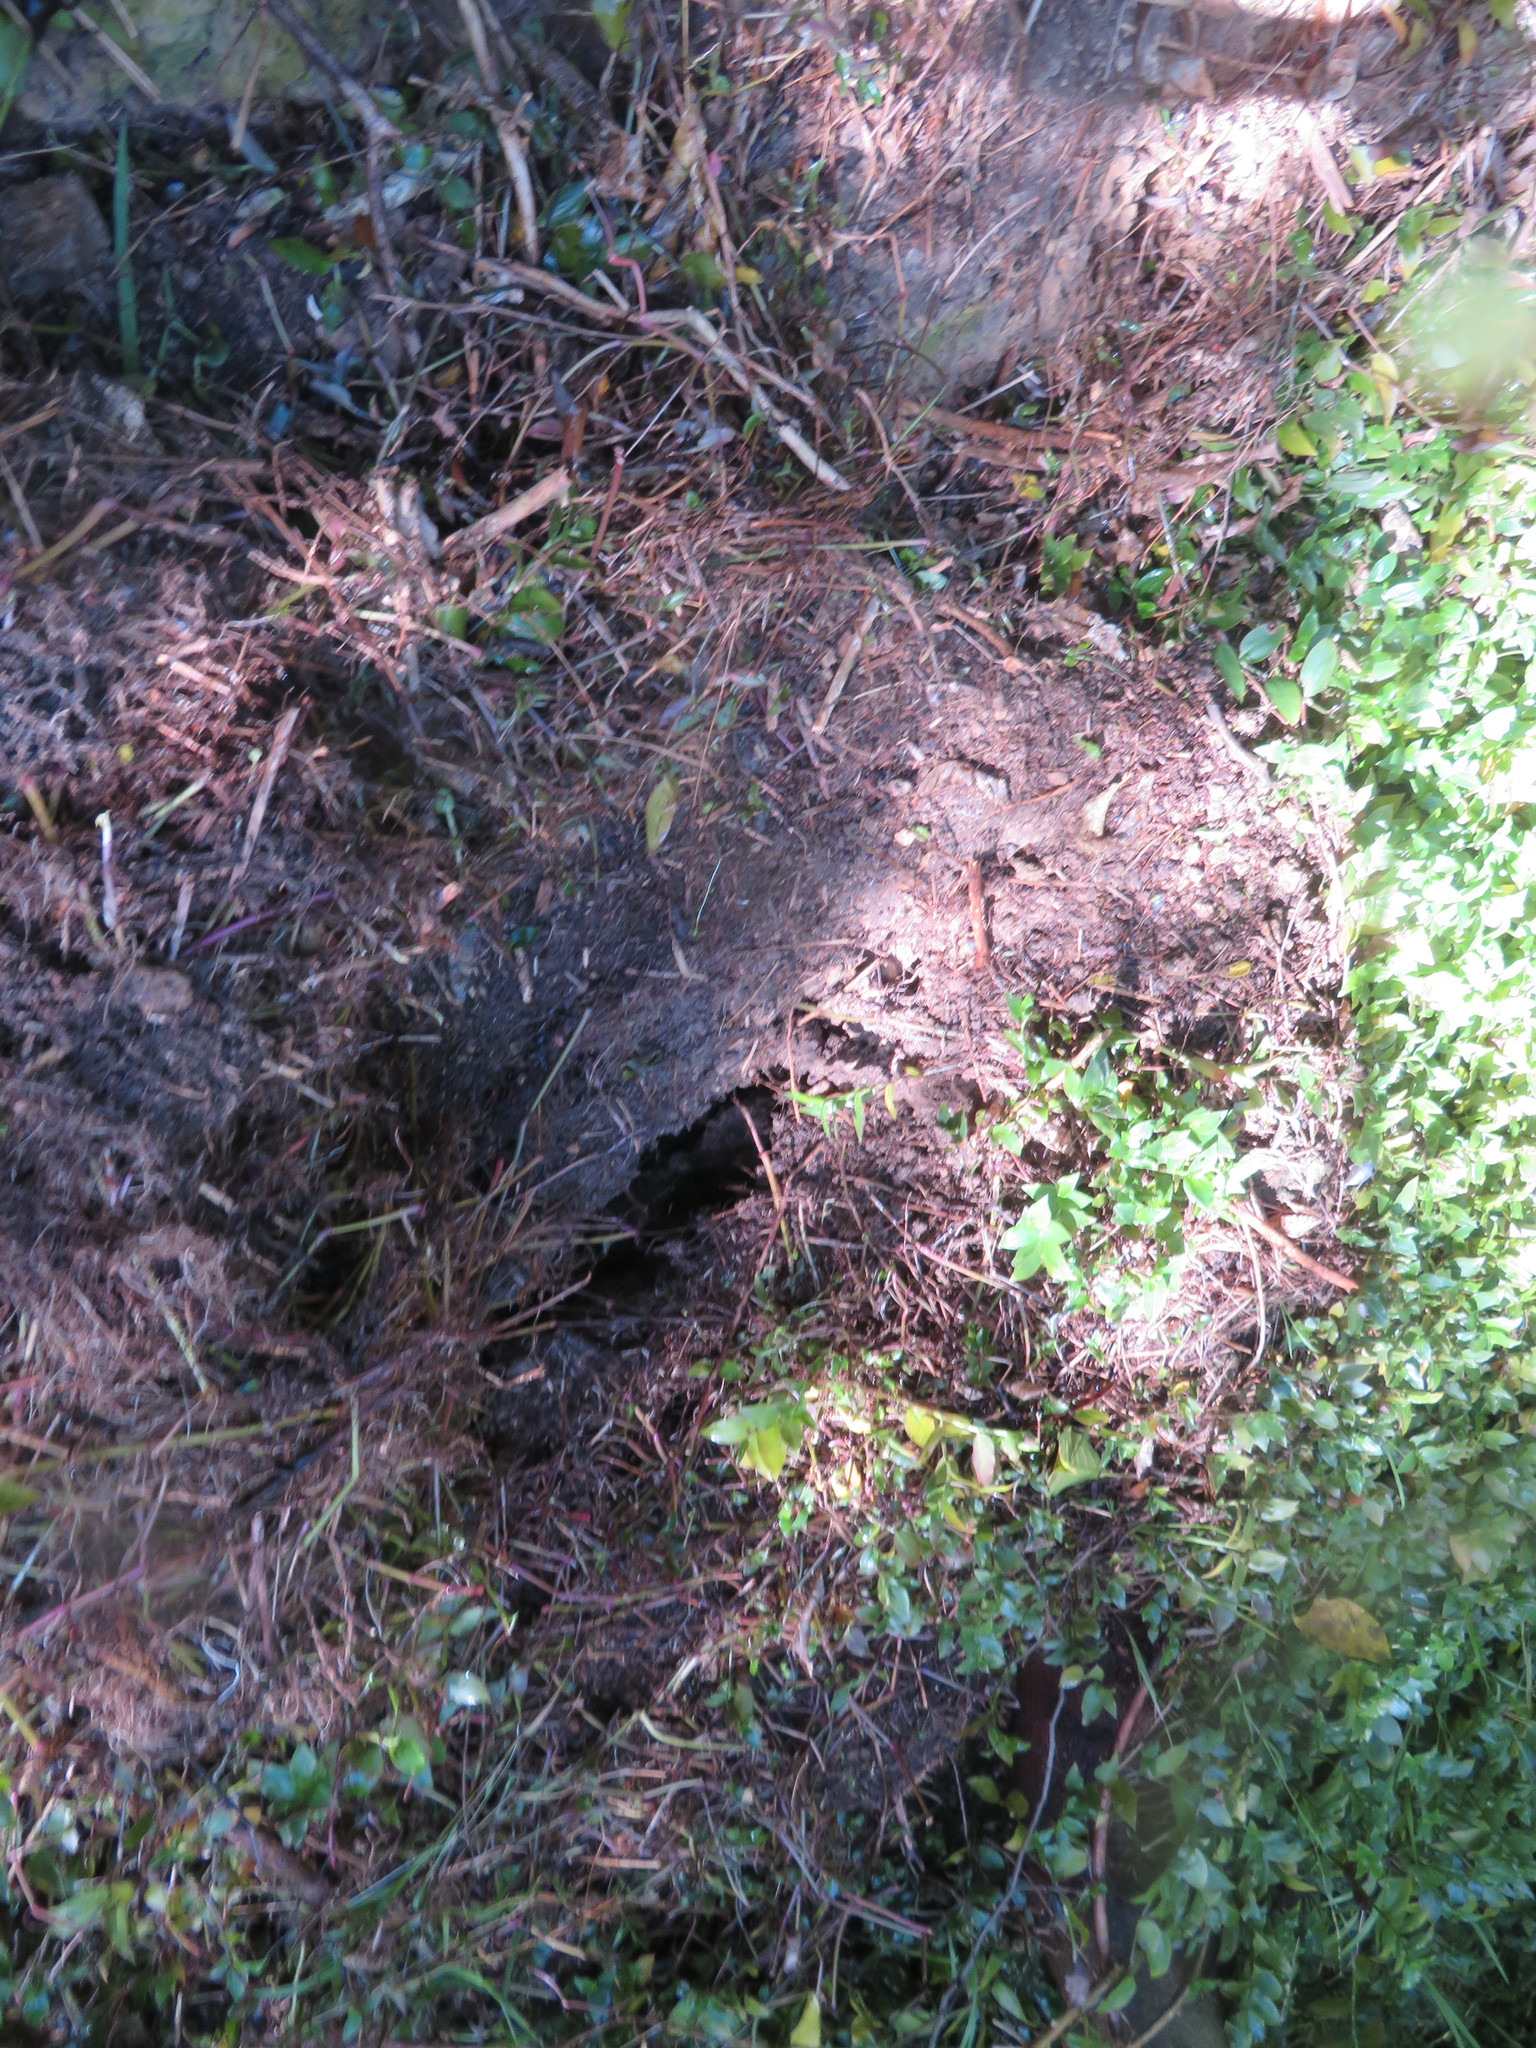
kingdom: Plantae
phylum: Tracheophyta
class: Magnoliopsida
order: Malpighiales
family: Violaceae
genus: Melicytus
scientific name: Melicytus ramiflorus
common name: Mahoe
